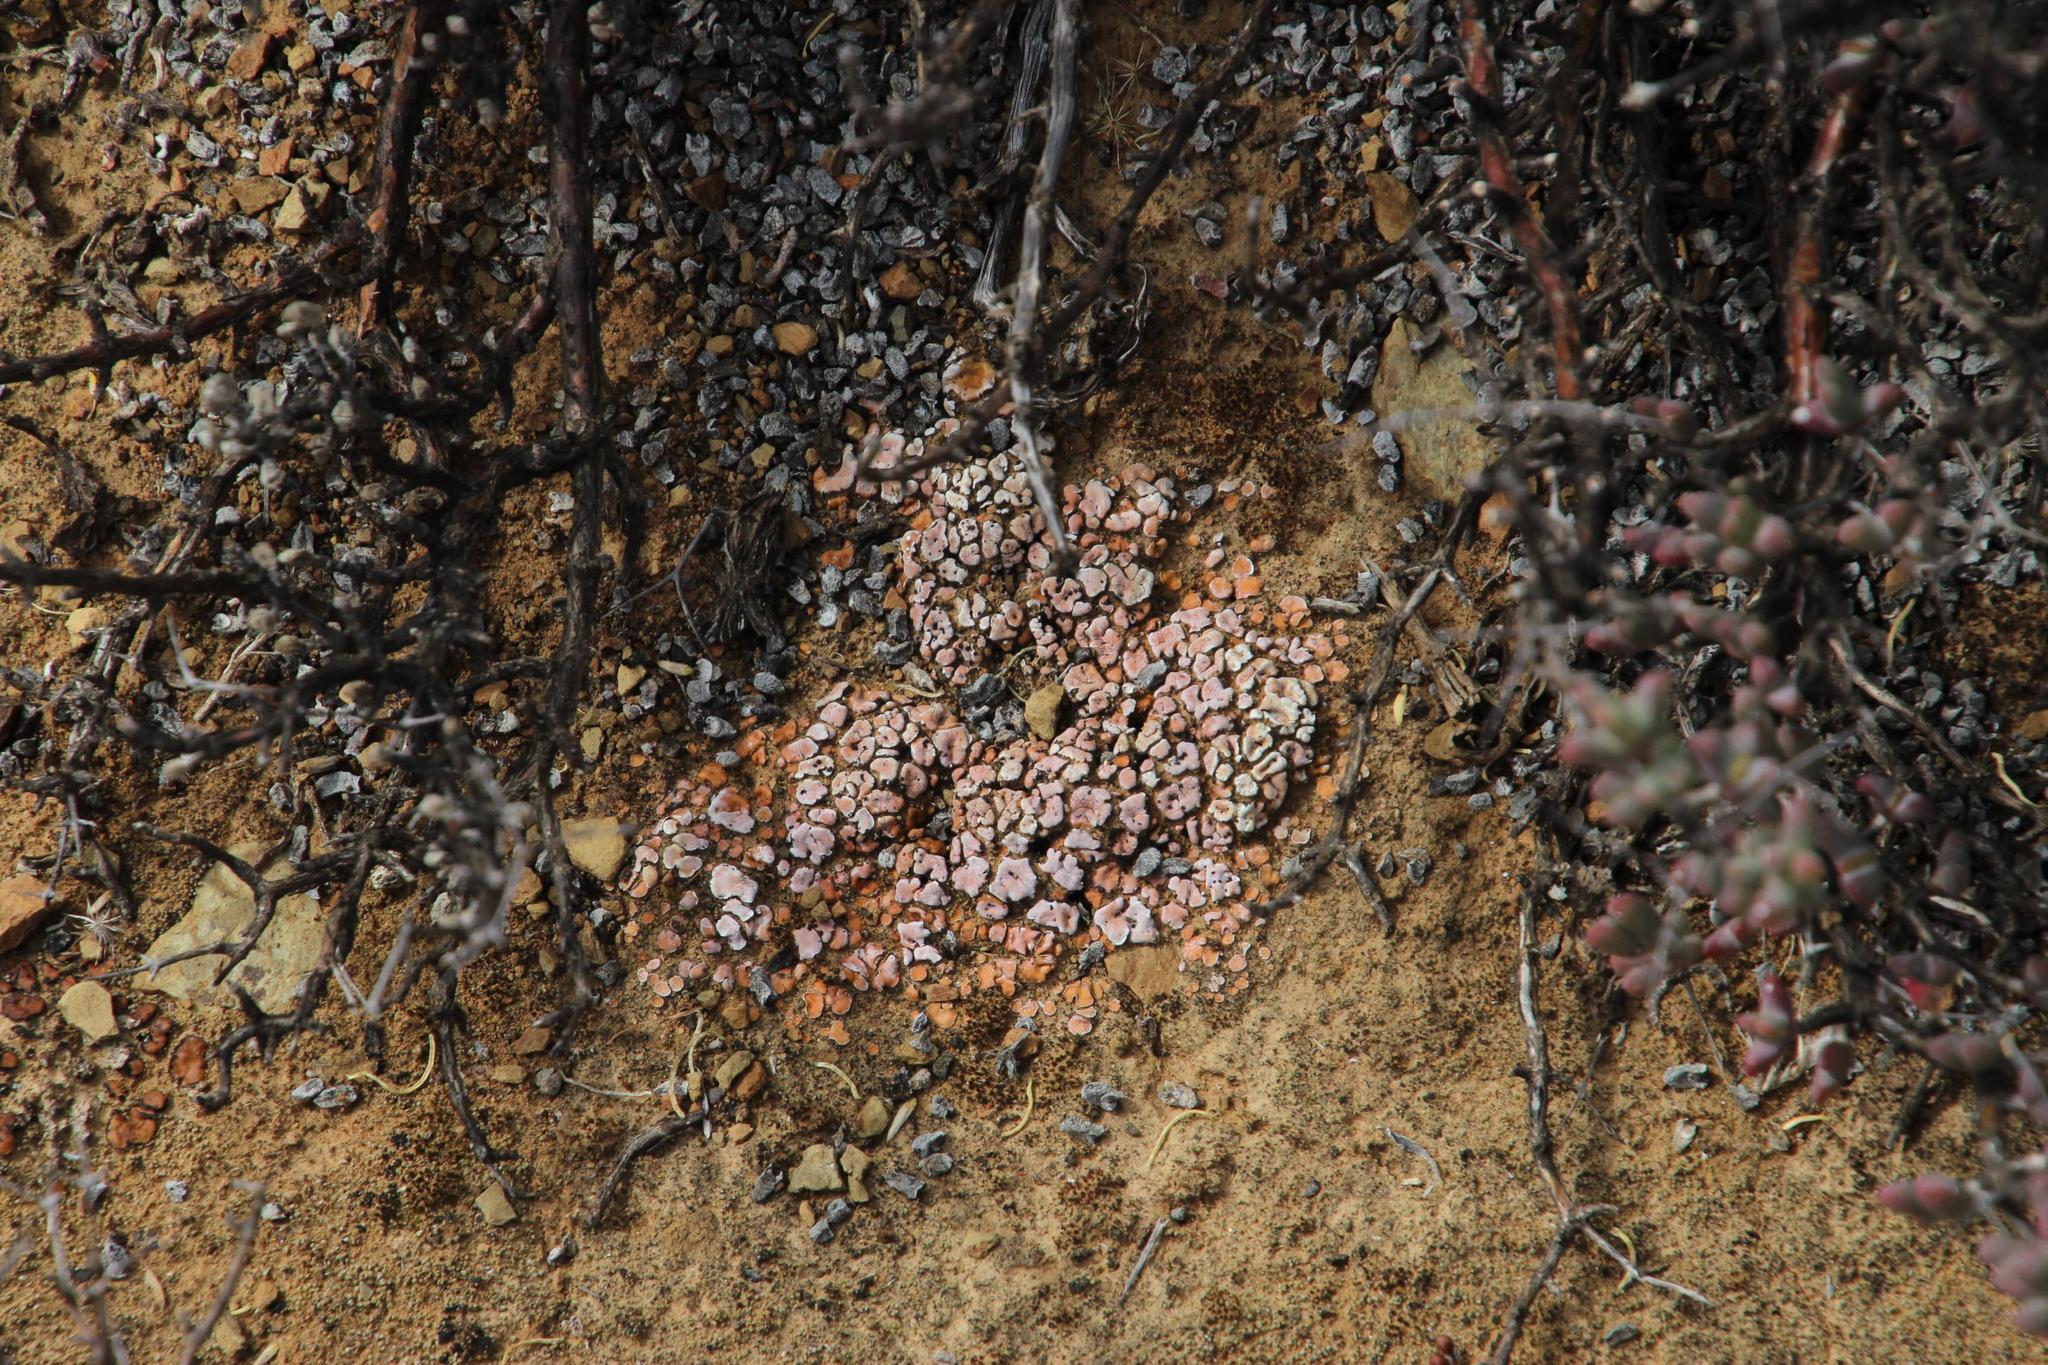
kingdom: Fungi
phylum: Ascomycota
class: Lecanoromycetes
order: Lecanorales
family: Psoraceae
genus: Psora
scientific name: Psora crenata
